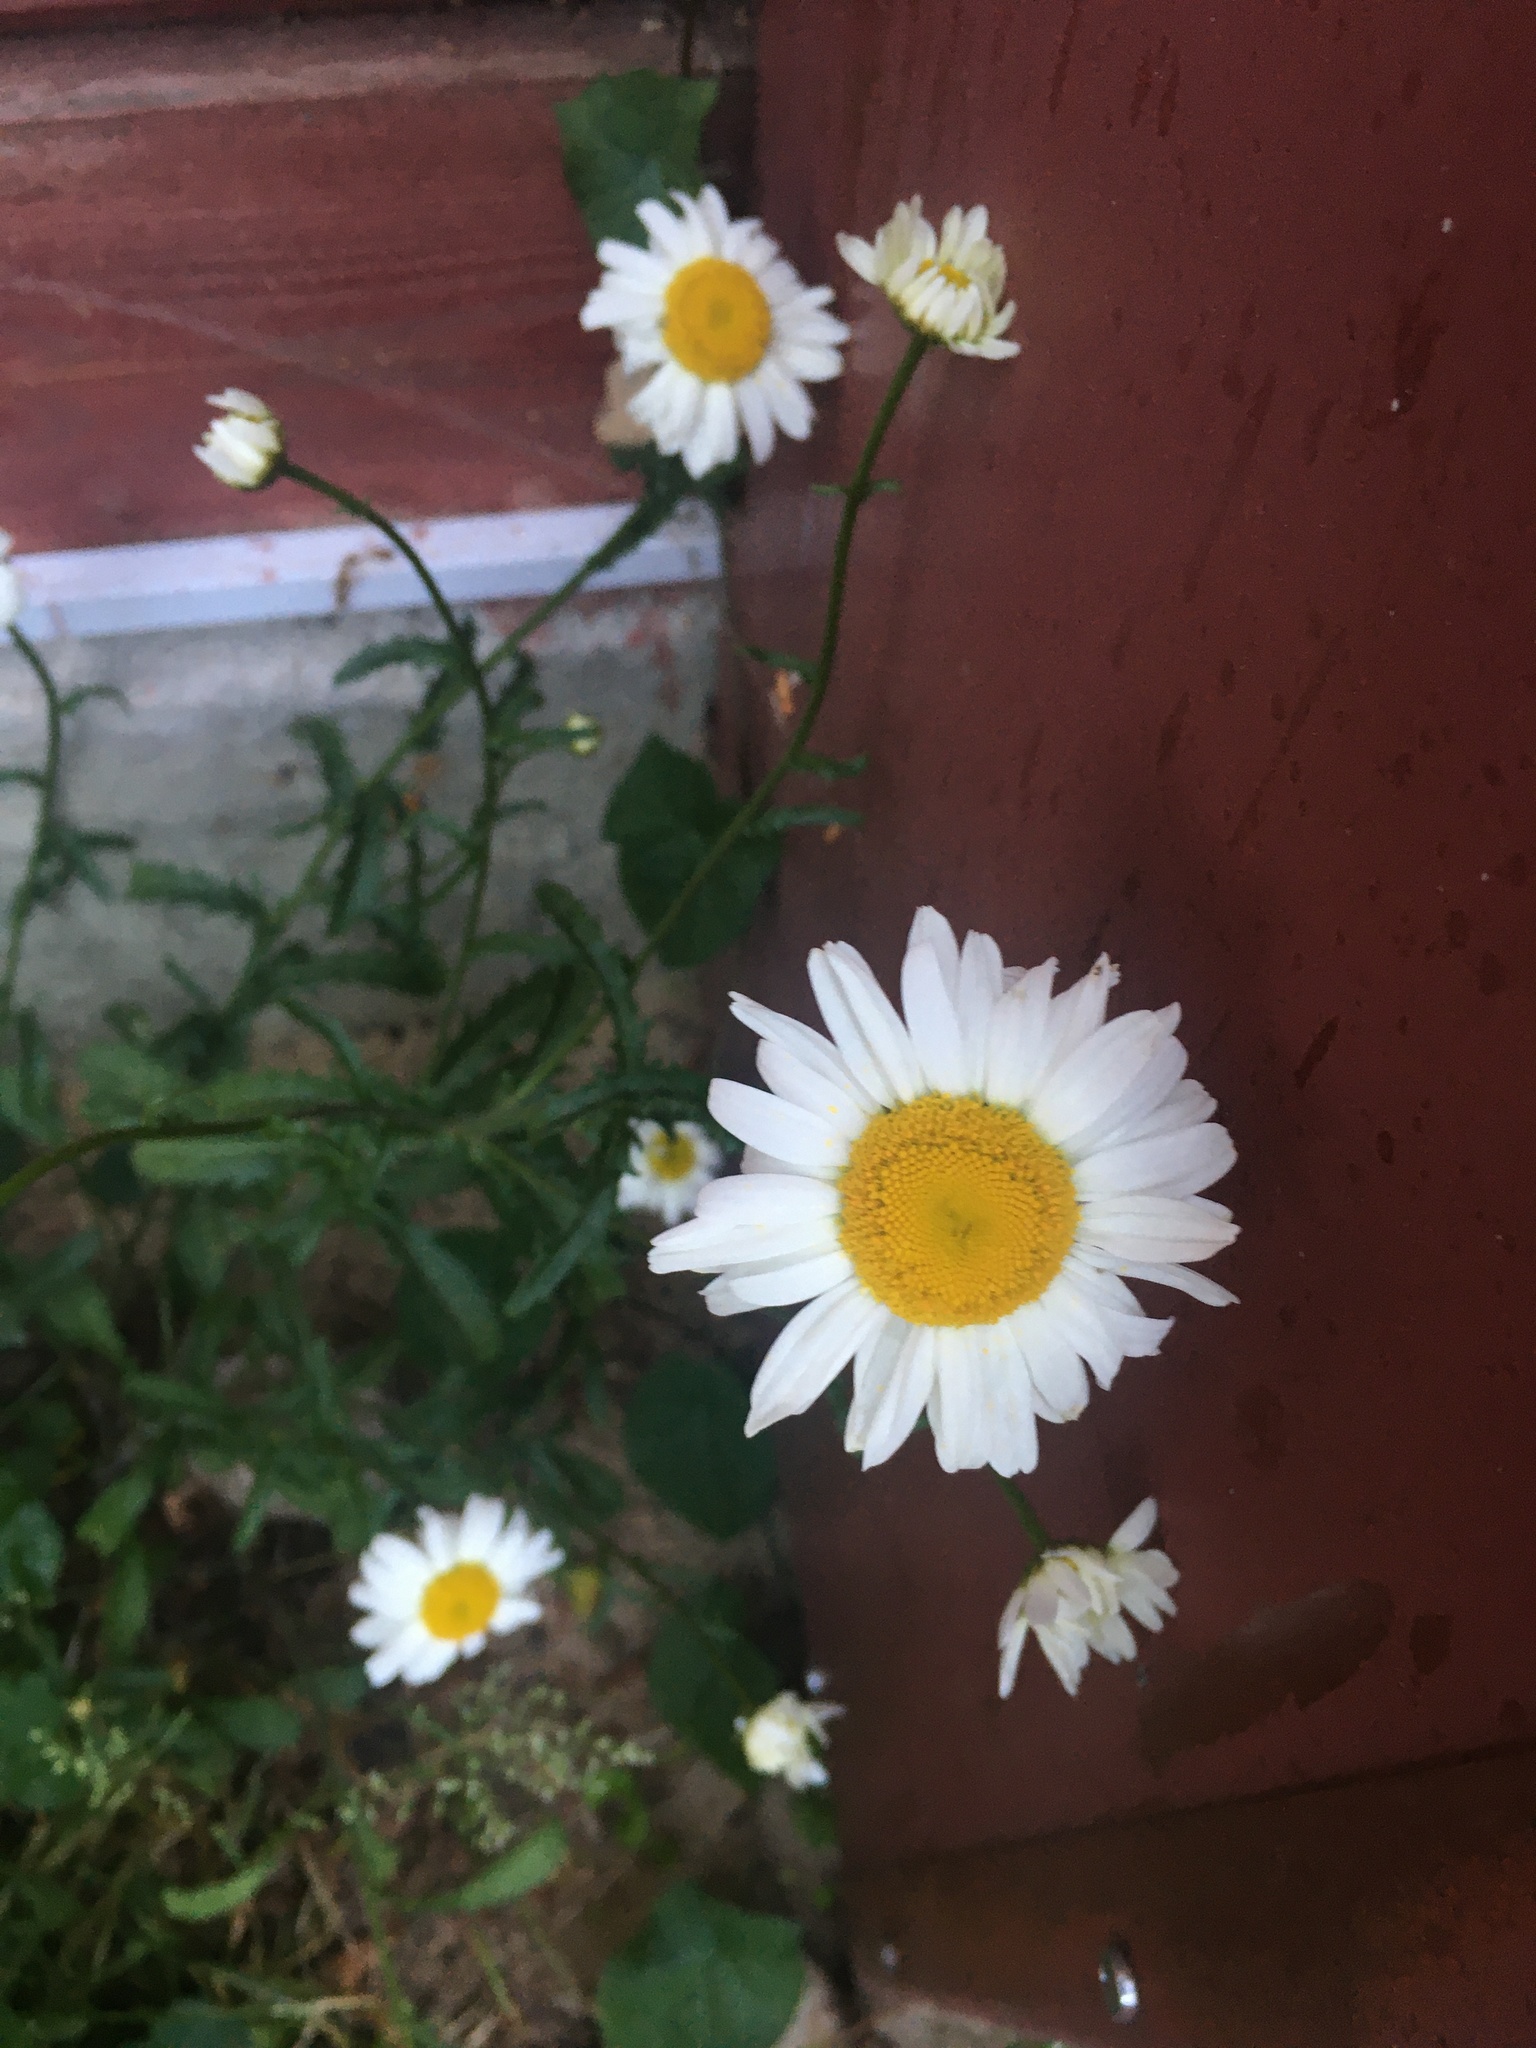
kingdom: Plantae
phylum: Tracheophyta
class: Magnoliopsida
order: Asterales
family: Asteraceae
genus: Leucanthemum
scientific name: Leucanthemum vulgare
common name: Oxeye daisy
